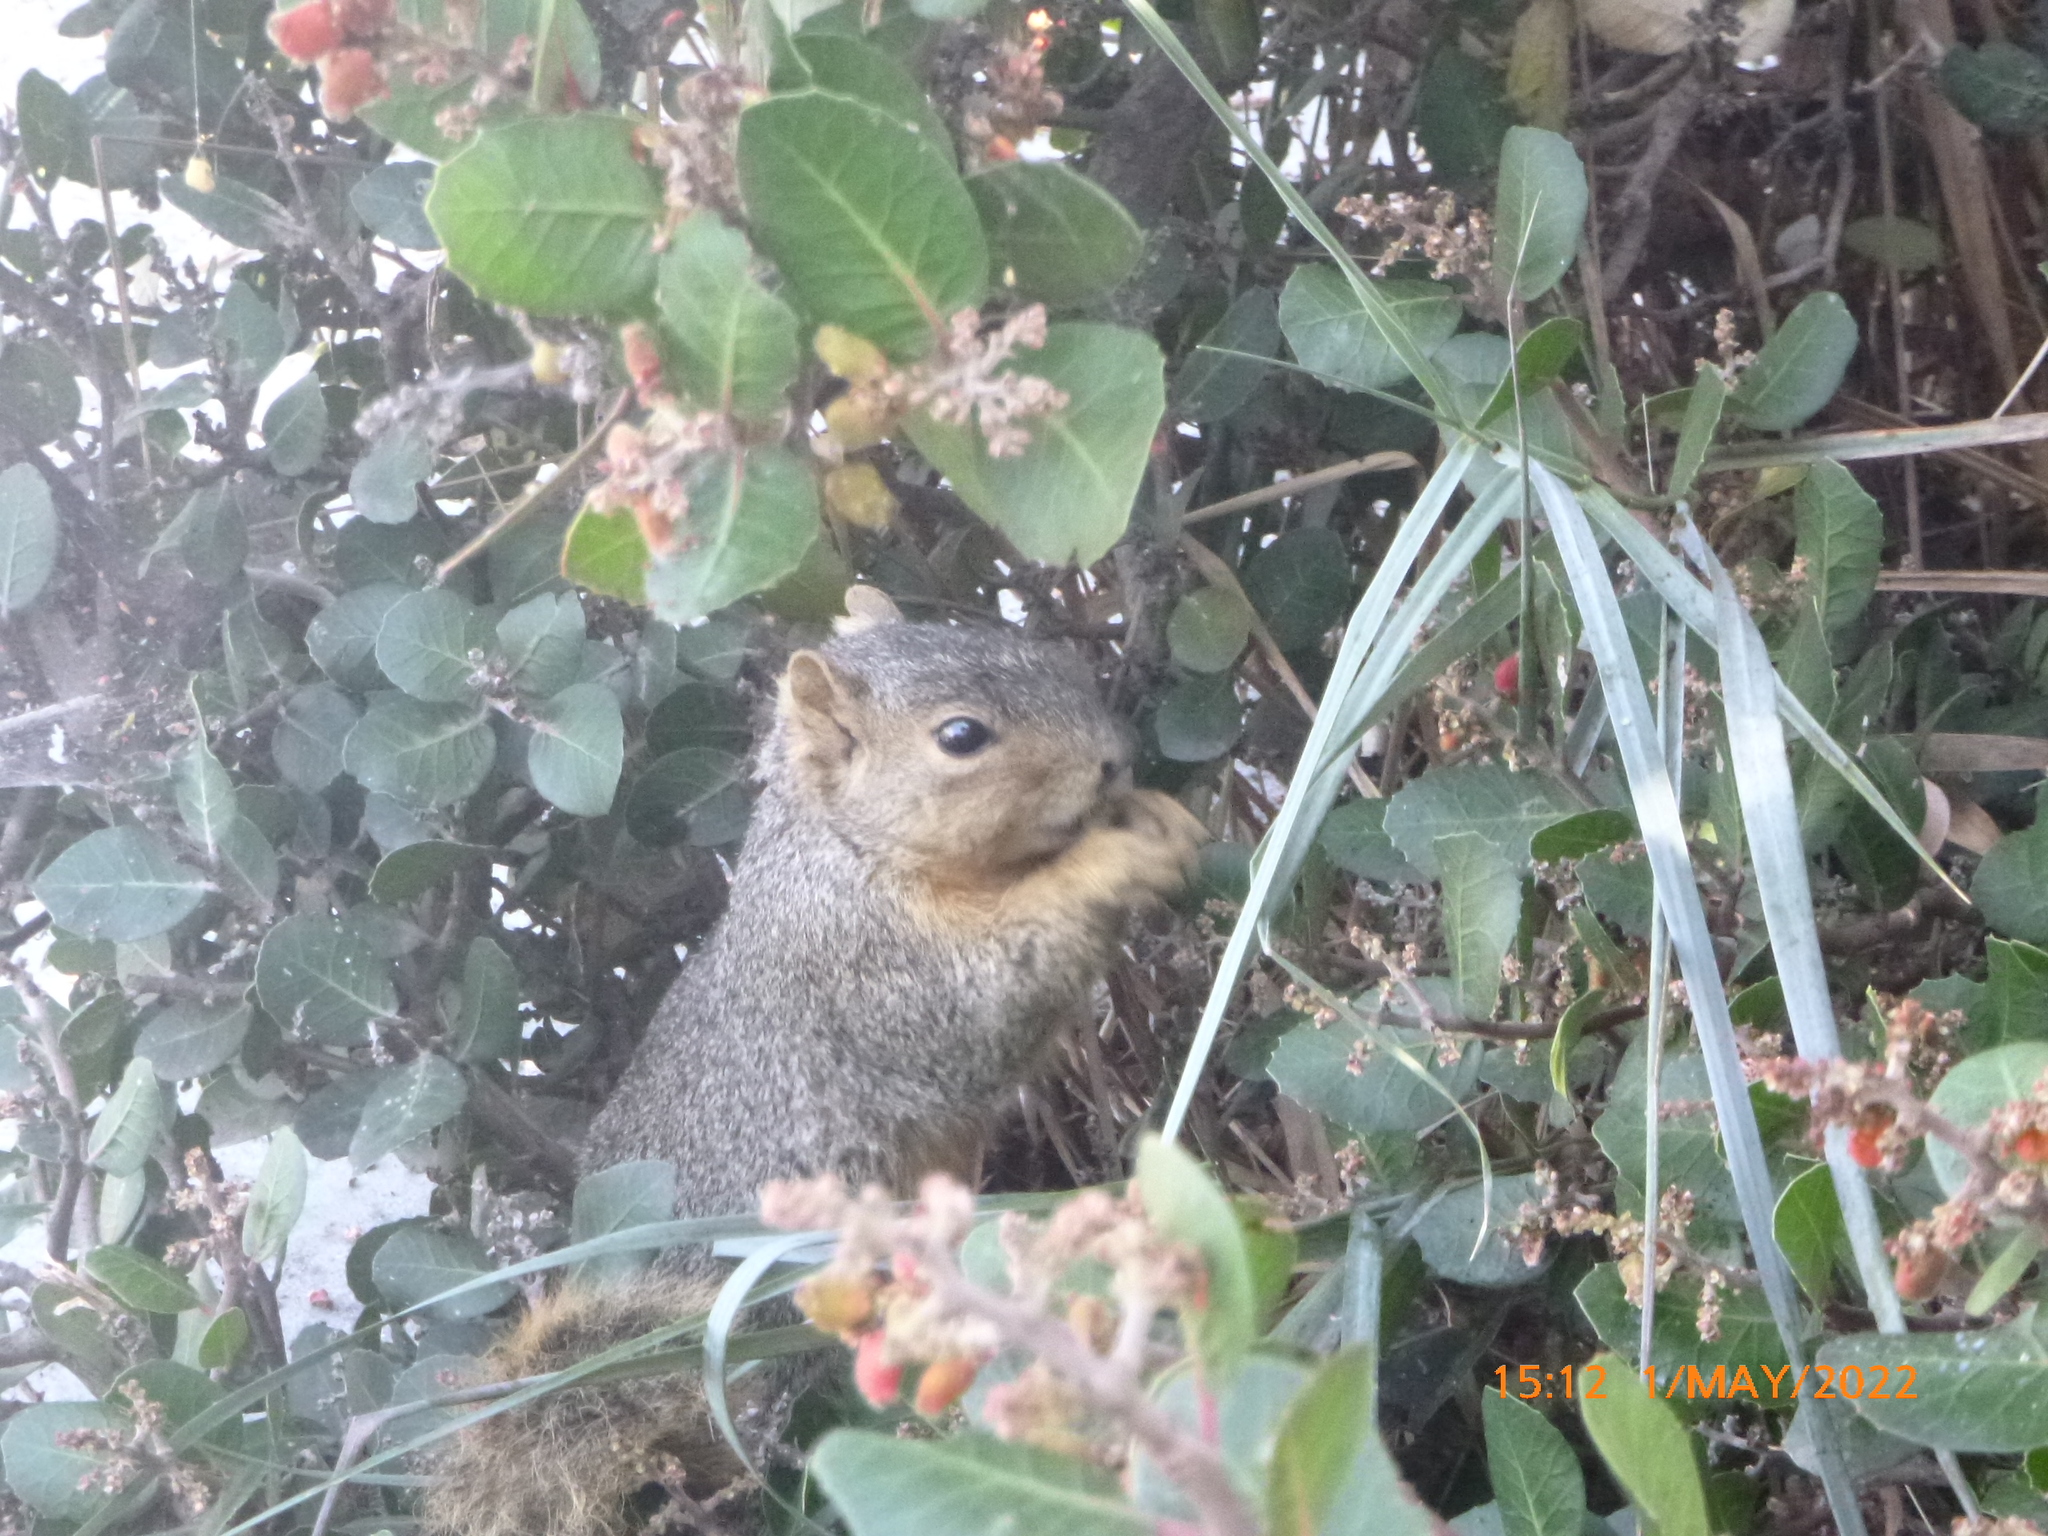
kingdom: Animalia
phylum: Chordata
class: Mammalia
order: Rodentia
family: Sciuridae
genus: Sciurus
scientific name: Sciurus niger
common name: Fox squirrel
